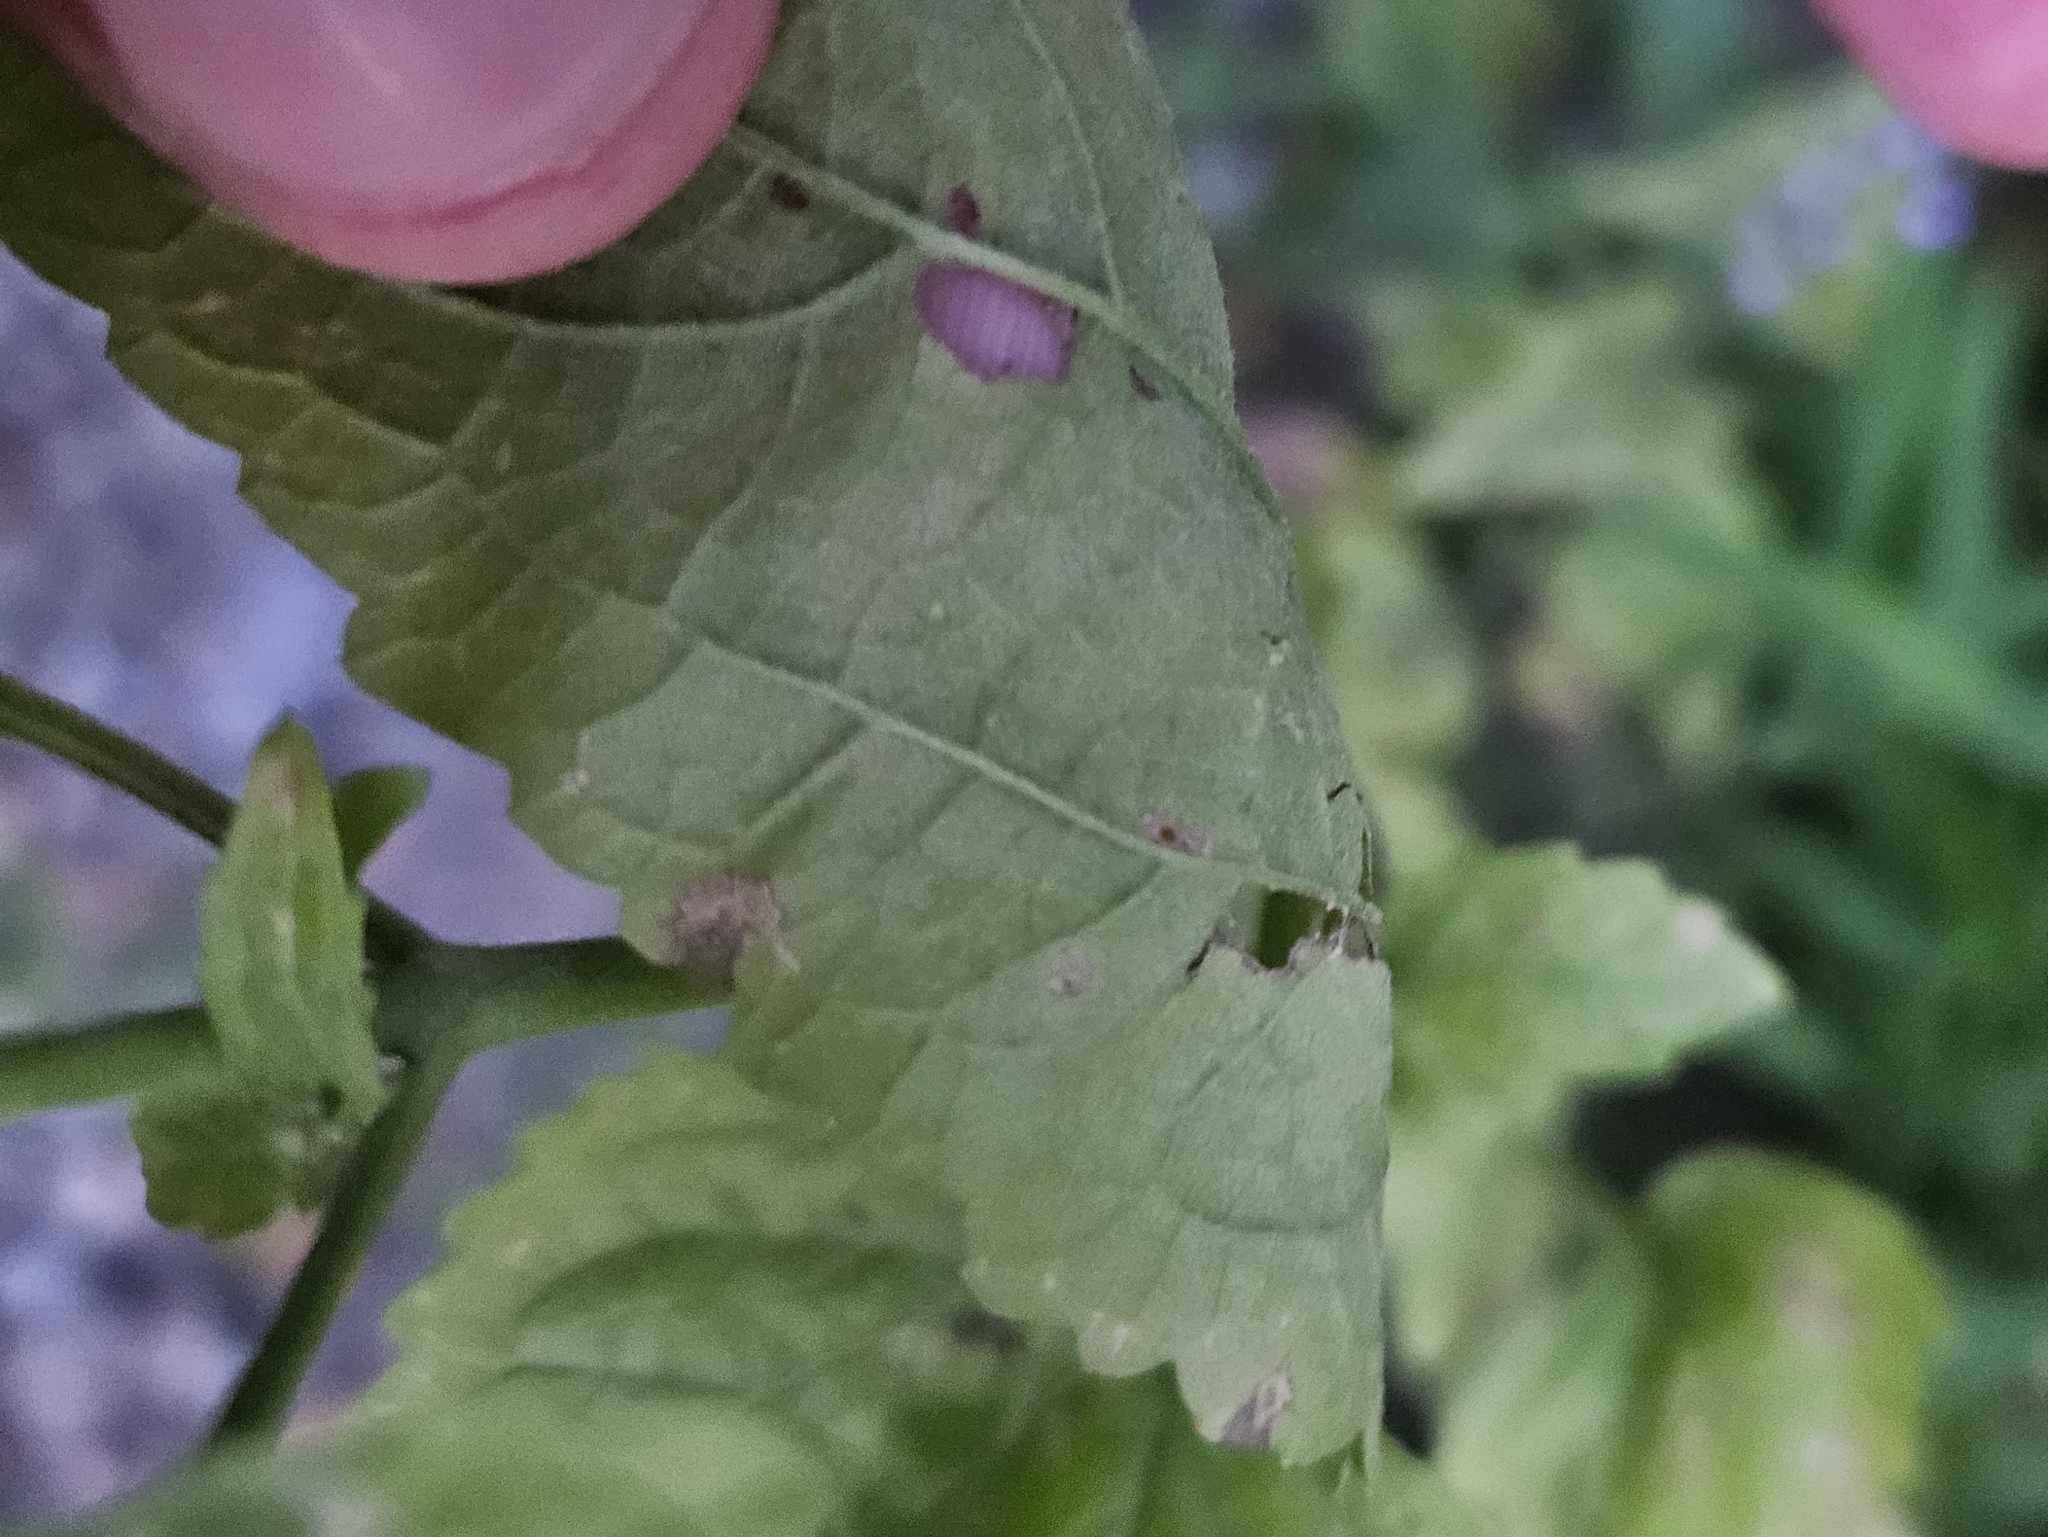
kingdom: Plantae
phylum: Tracheophyta
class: Magnoliopsida
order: Asterales
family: Asteraceae
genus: Conoclinium
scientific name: Conoclinium coelestinum
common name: Blue mistflower
